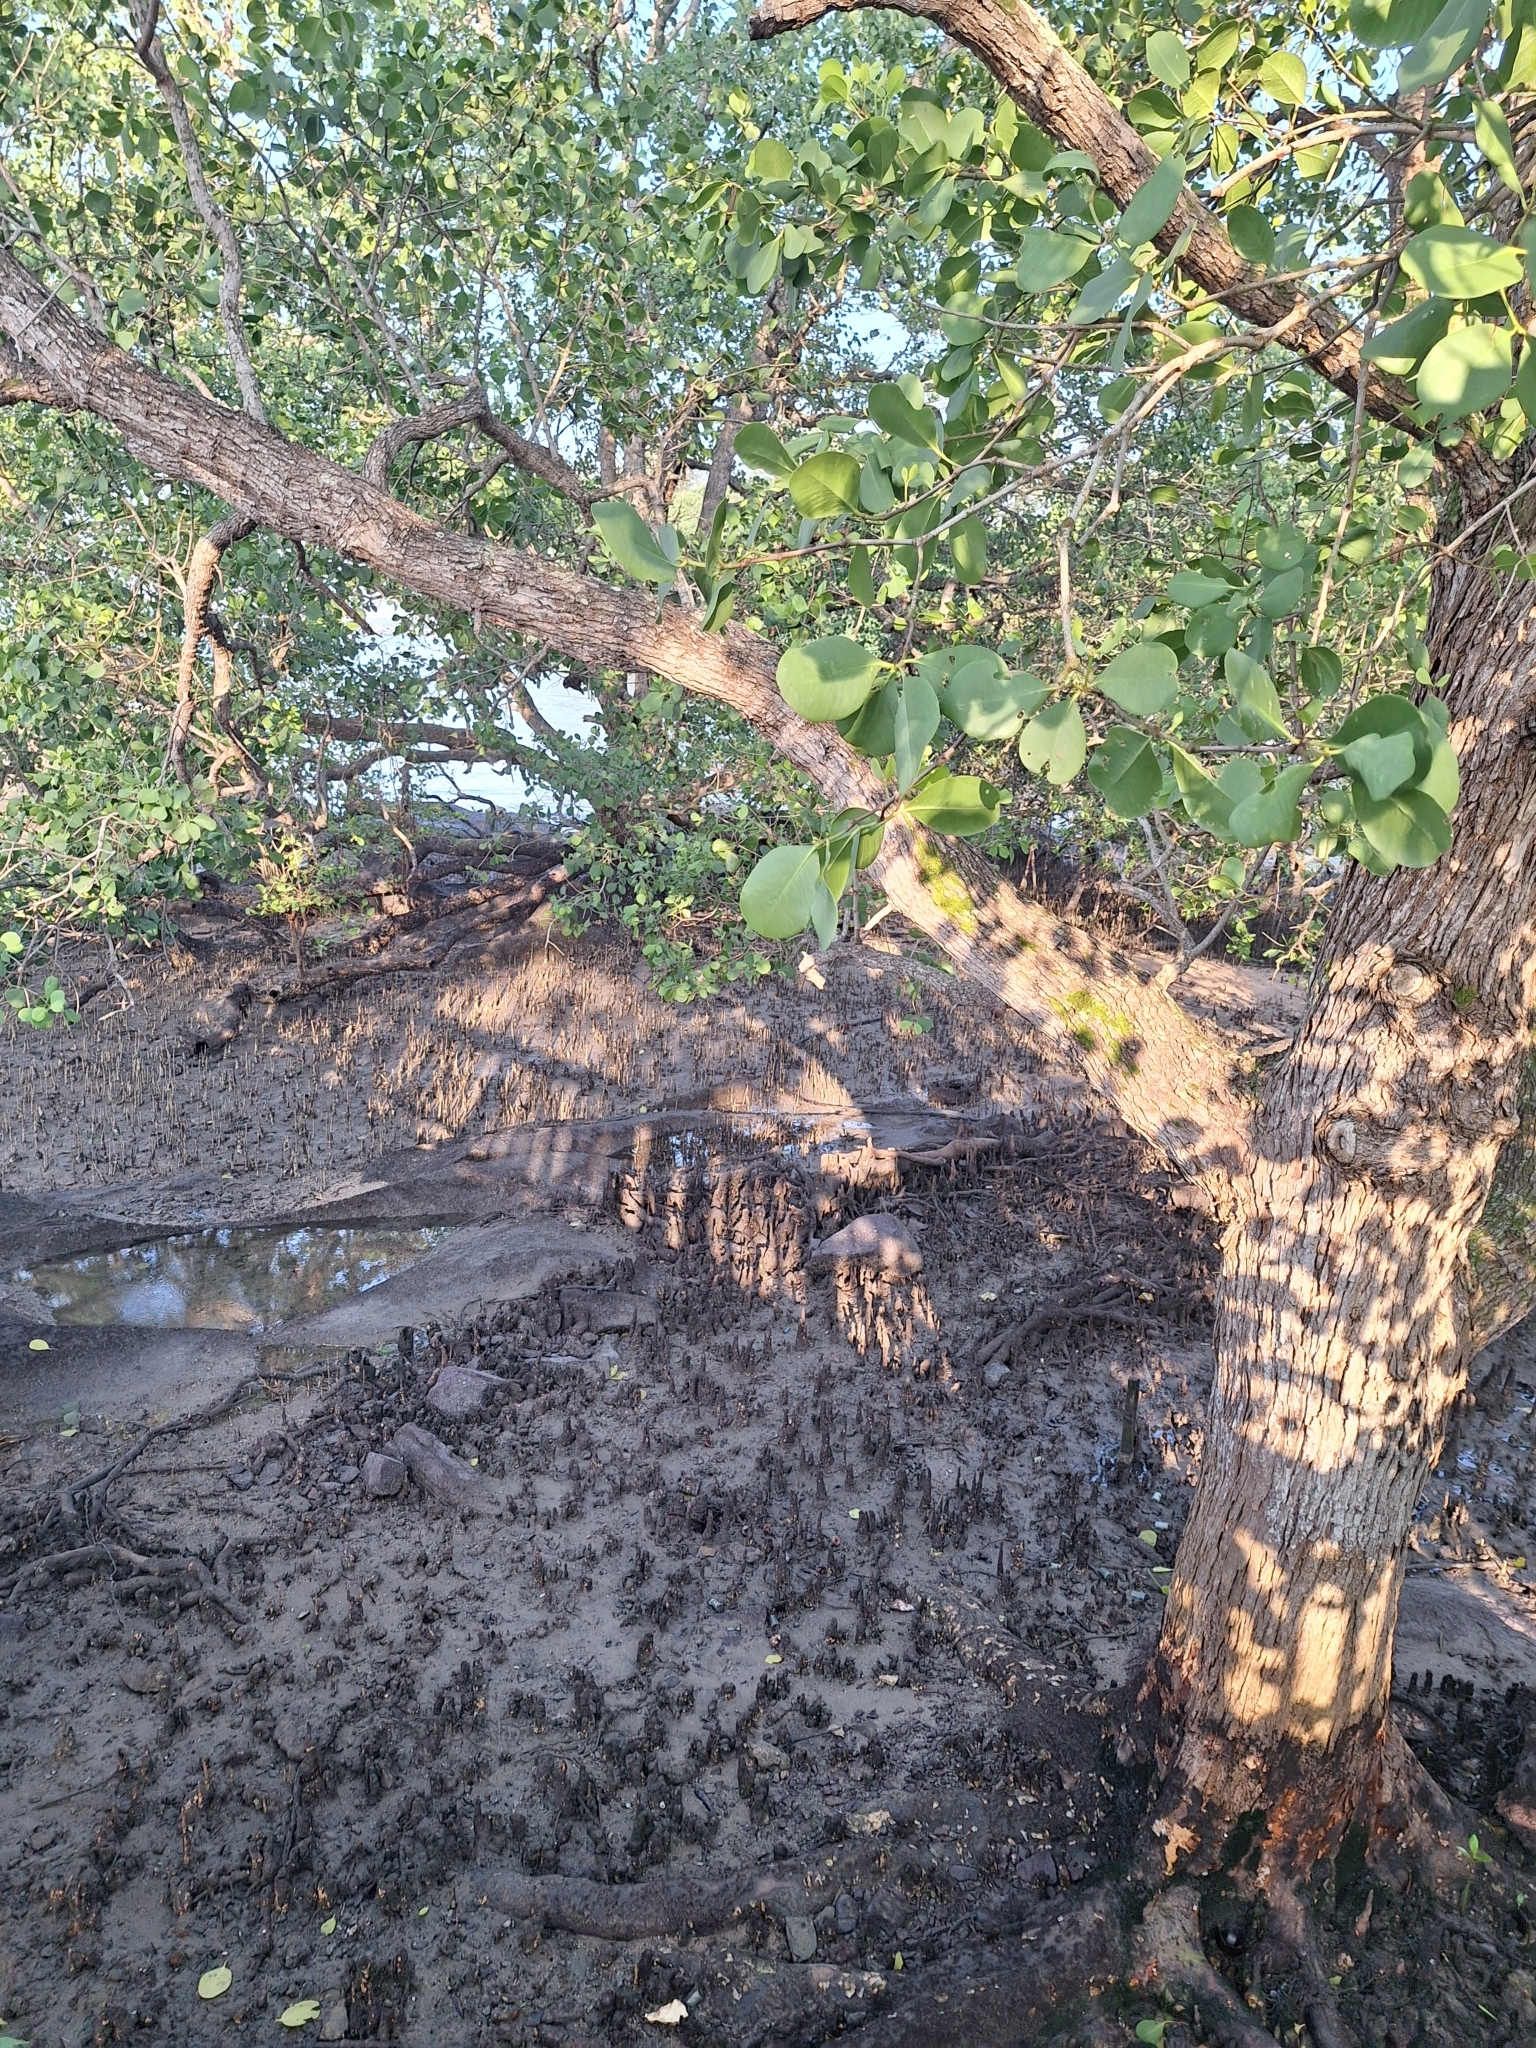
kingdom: Plantae
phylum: Tracheophyta
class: Magnoliopsida
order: Myrtales
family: Lythraceae
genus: Sonneratia
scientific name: Sonneratia alba
